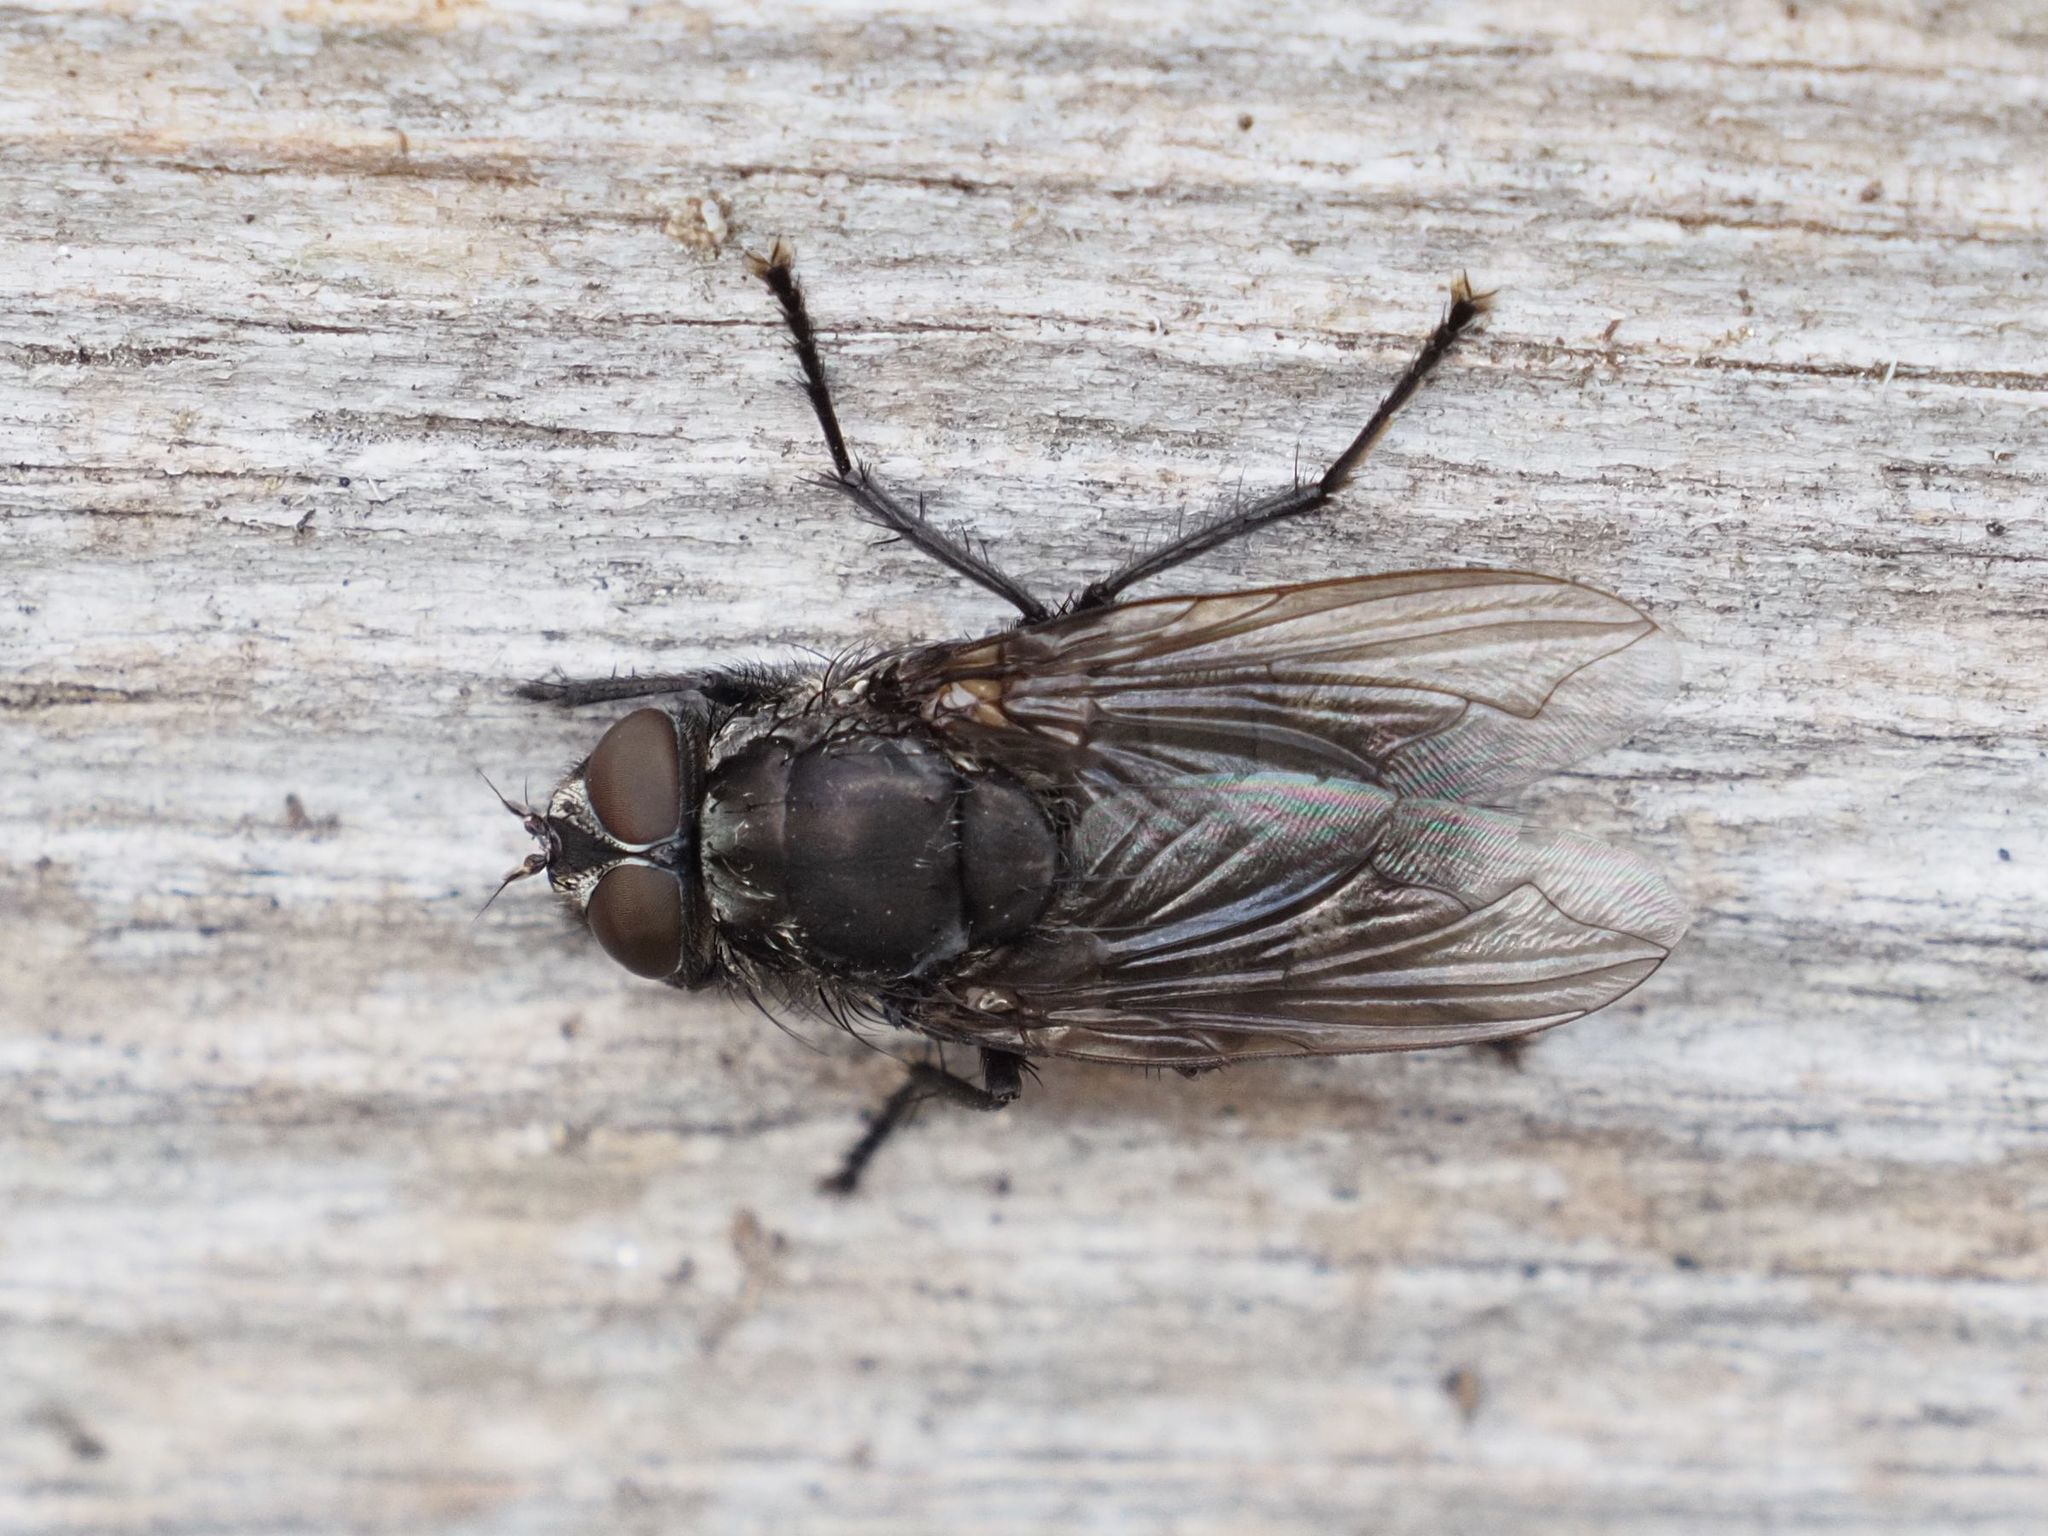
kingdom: Animalia
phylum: Arthropoda
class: Insecta
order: Diptera
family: Polleniidae
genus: Pollenia
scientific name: Pollenia vagabunda
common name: Vagabund cluster fly
